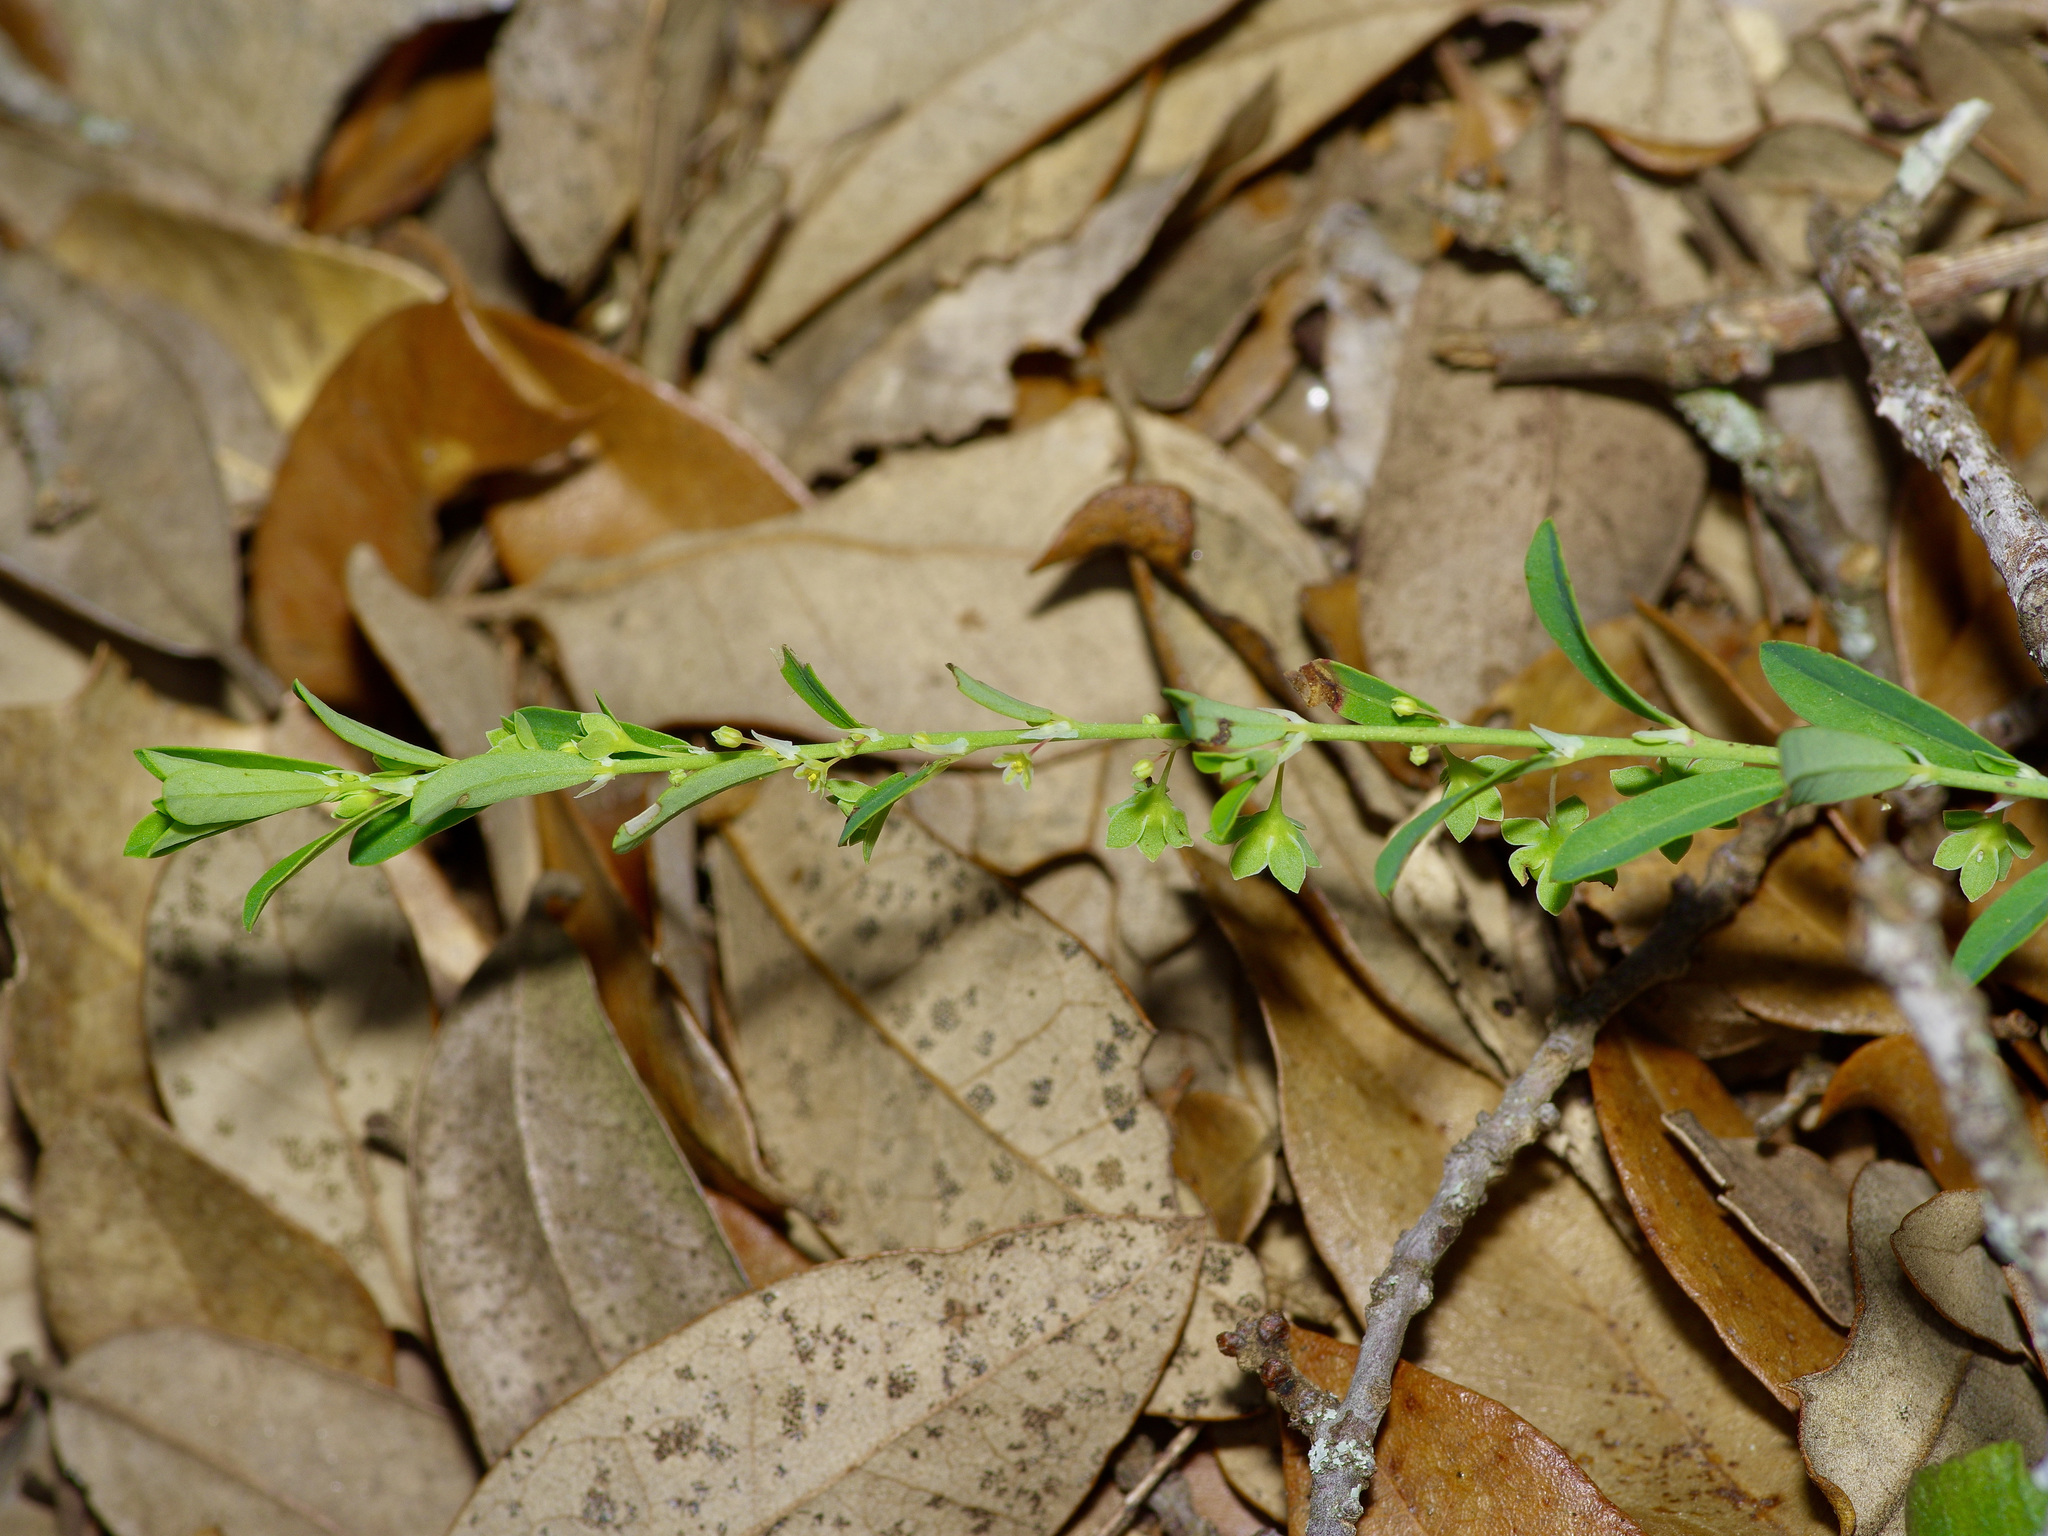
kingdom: Plantae
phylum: Tracheophyta
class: Magnoliopsida
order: Malpighiales
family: Phyllanthaceae
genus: Phyllanthus
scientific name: Phyllanthus polygonoides
